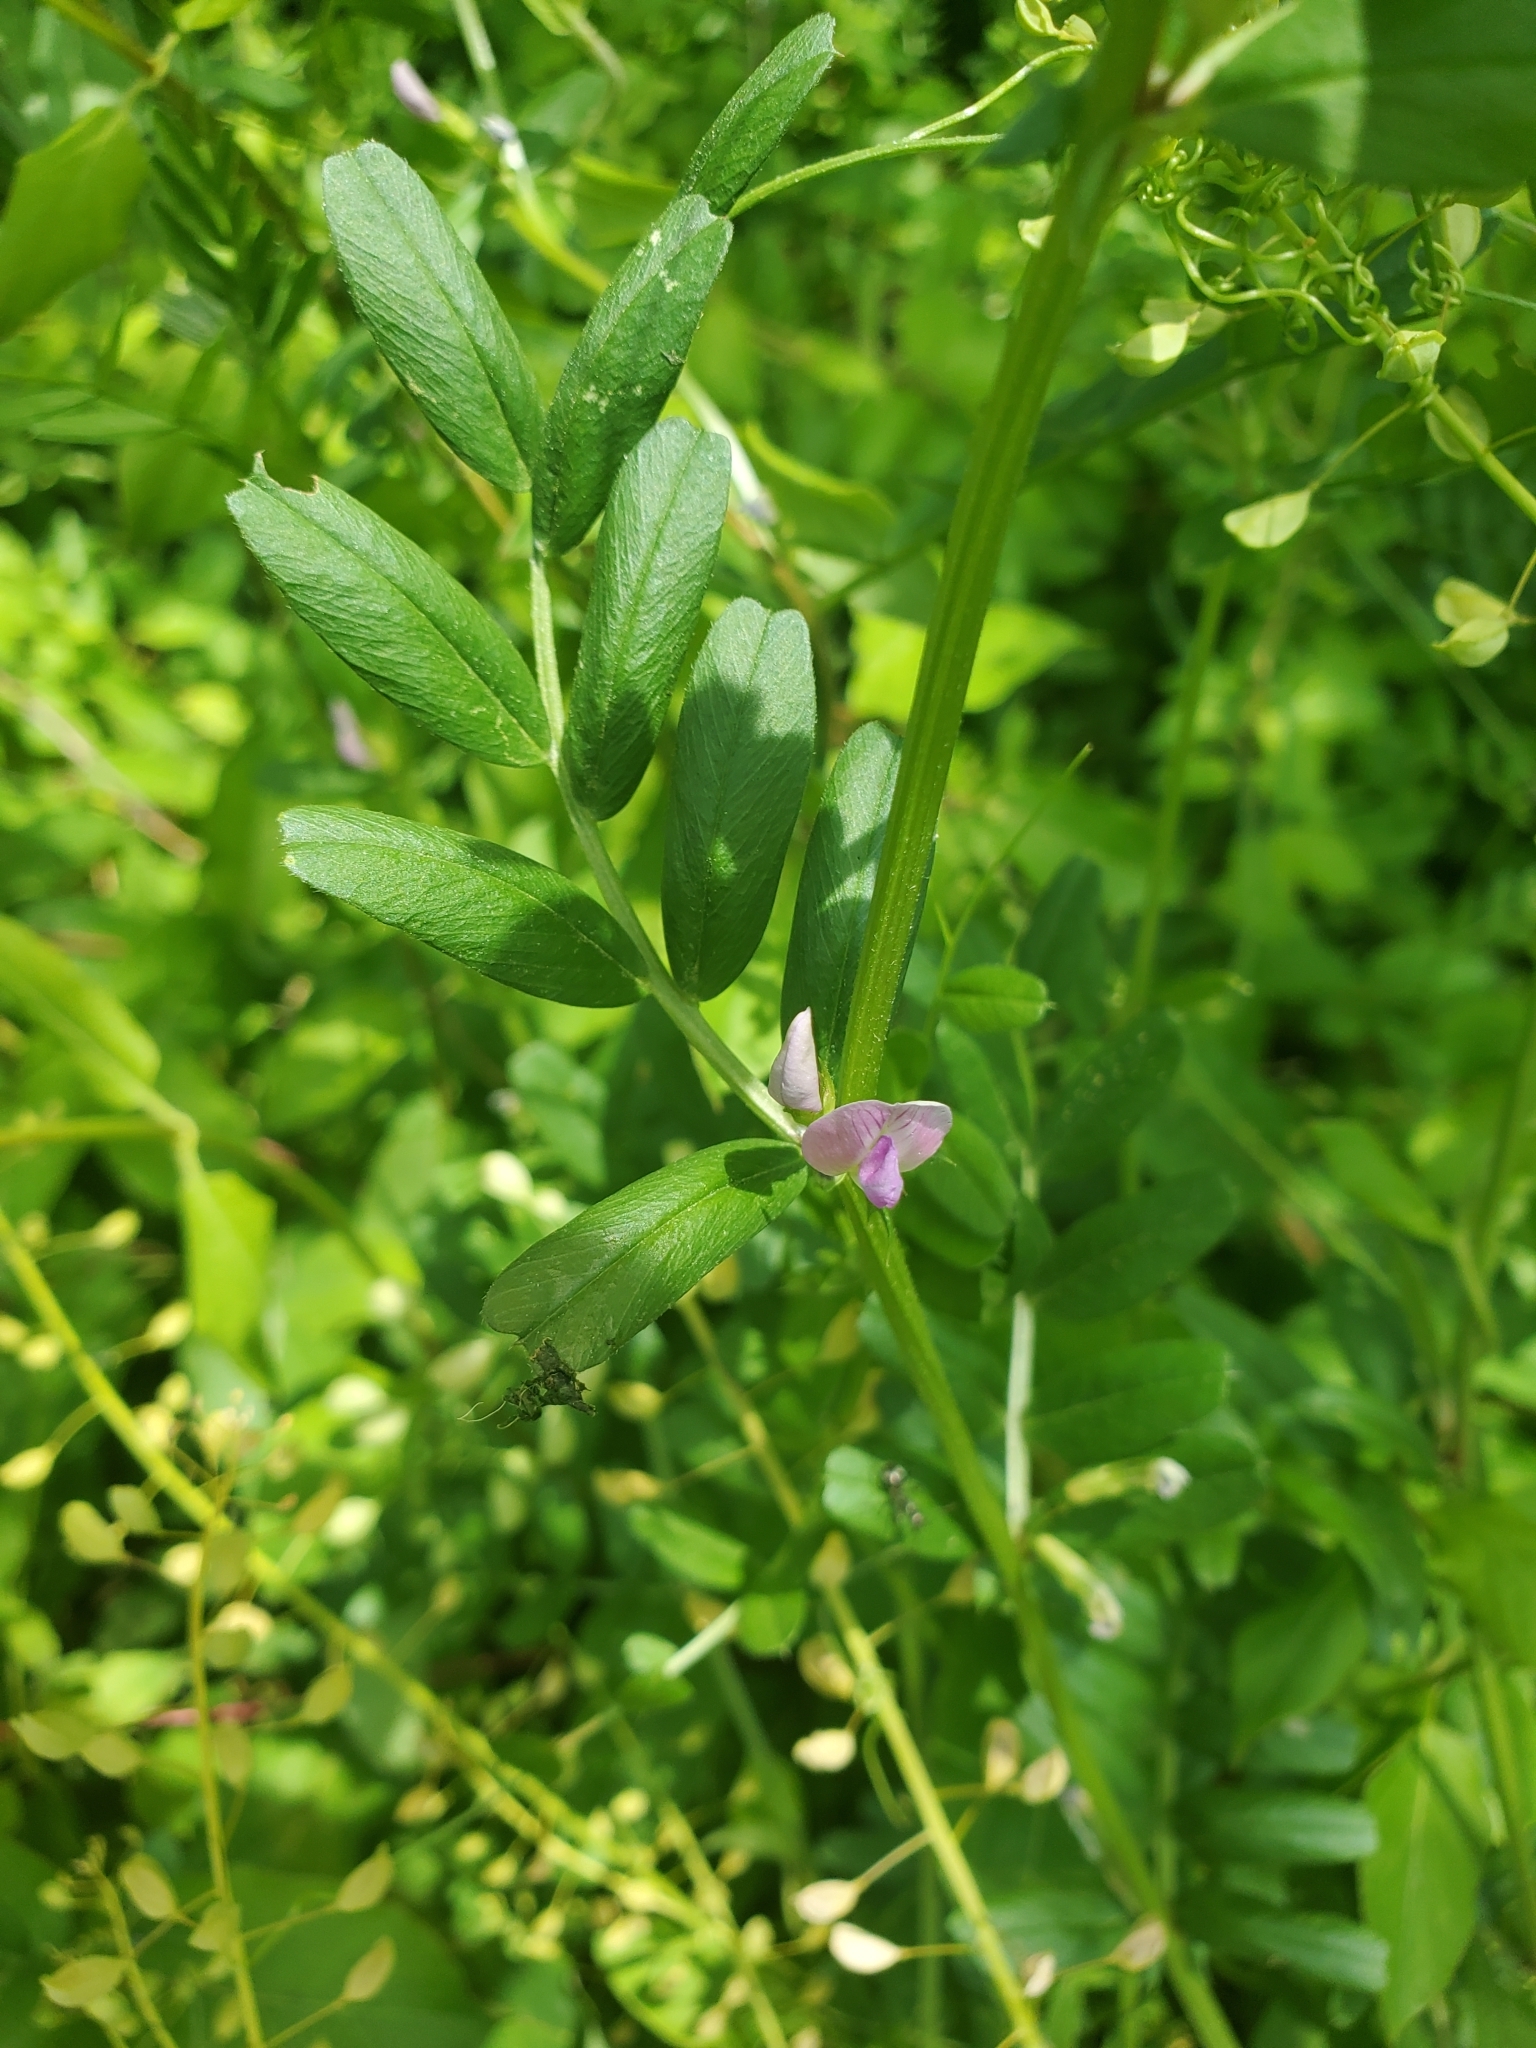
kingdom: Plantae
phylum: Tracheophyta
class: Magnoliopsida
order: Fabales
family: Fabaceae
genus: Vicia
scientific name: Vicia sativa
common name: Garden vetch
